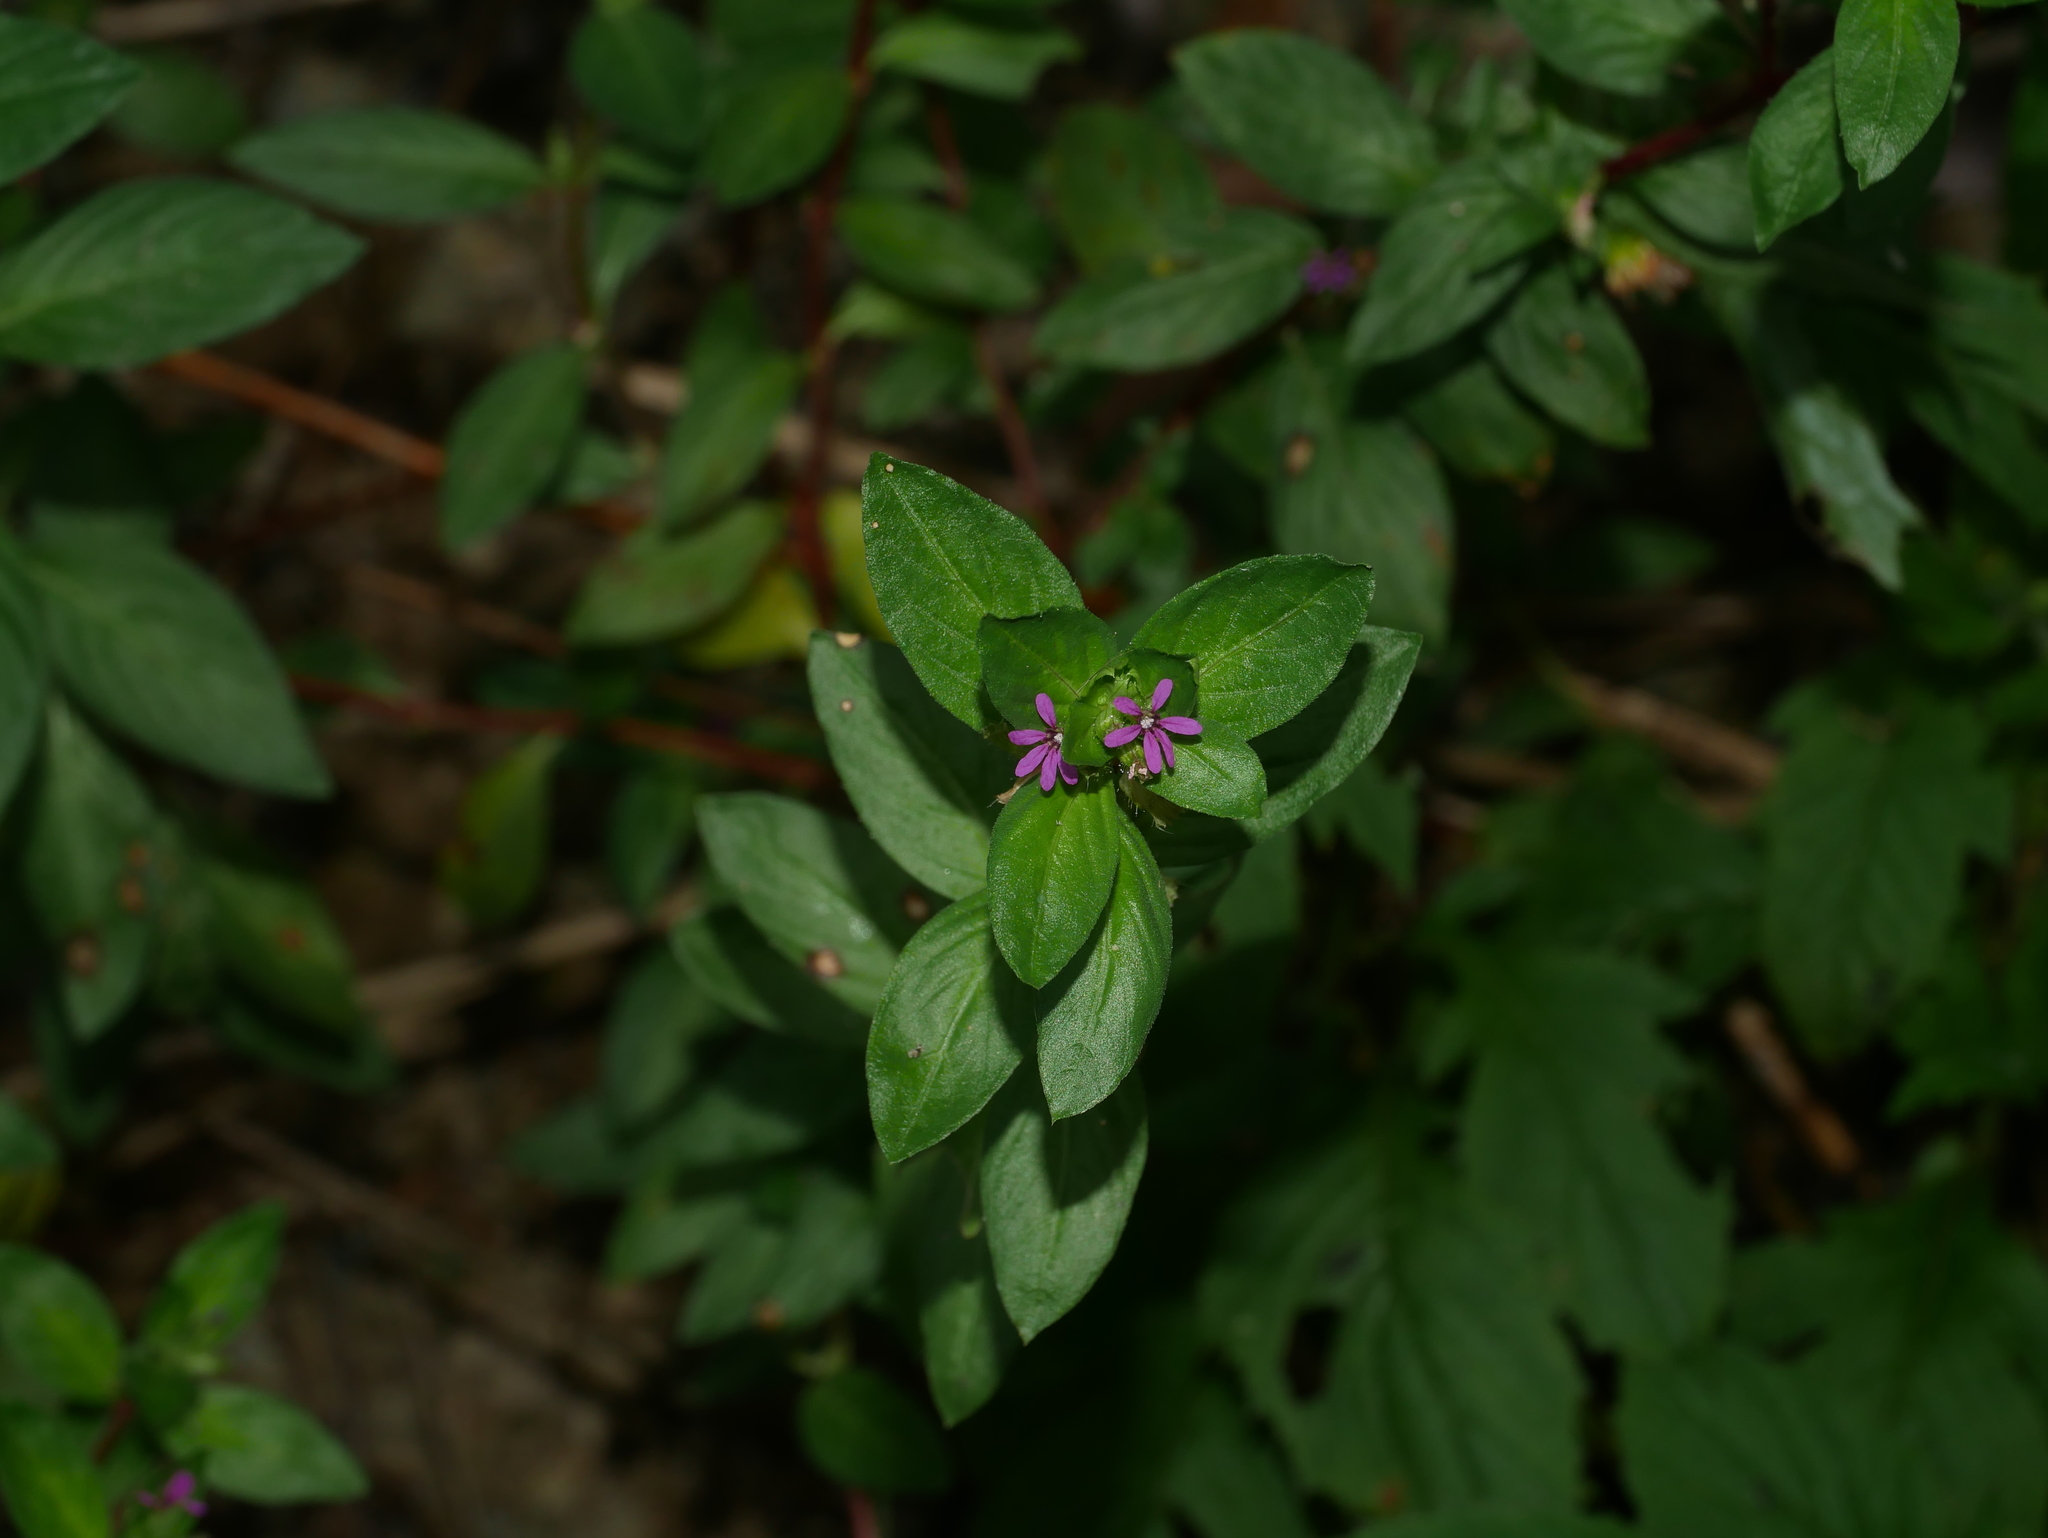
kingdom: Plantae
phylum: Tracheophyta
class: Magnoliopsida
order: Myrtales
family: Lythraceae
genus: Cuphea
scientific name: Cuphea carthagenensis
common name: Colombian waxweed
